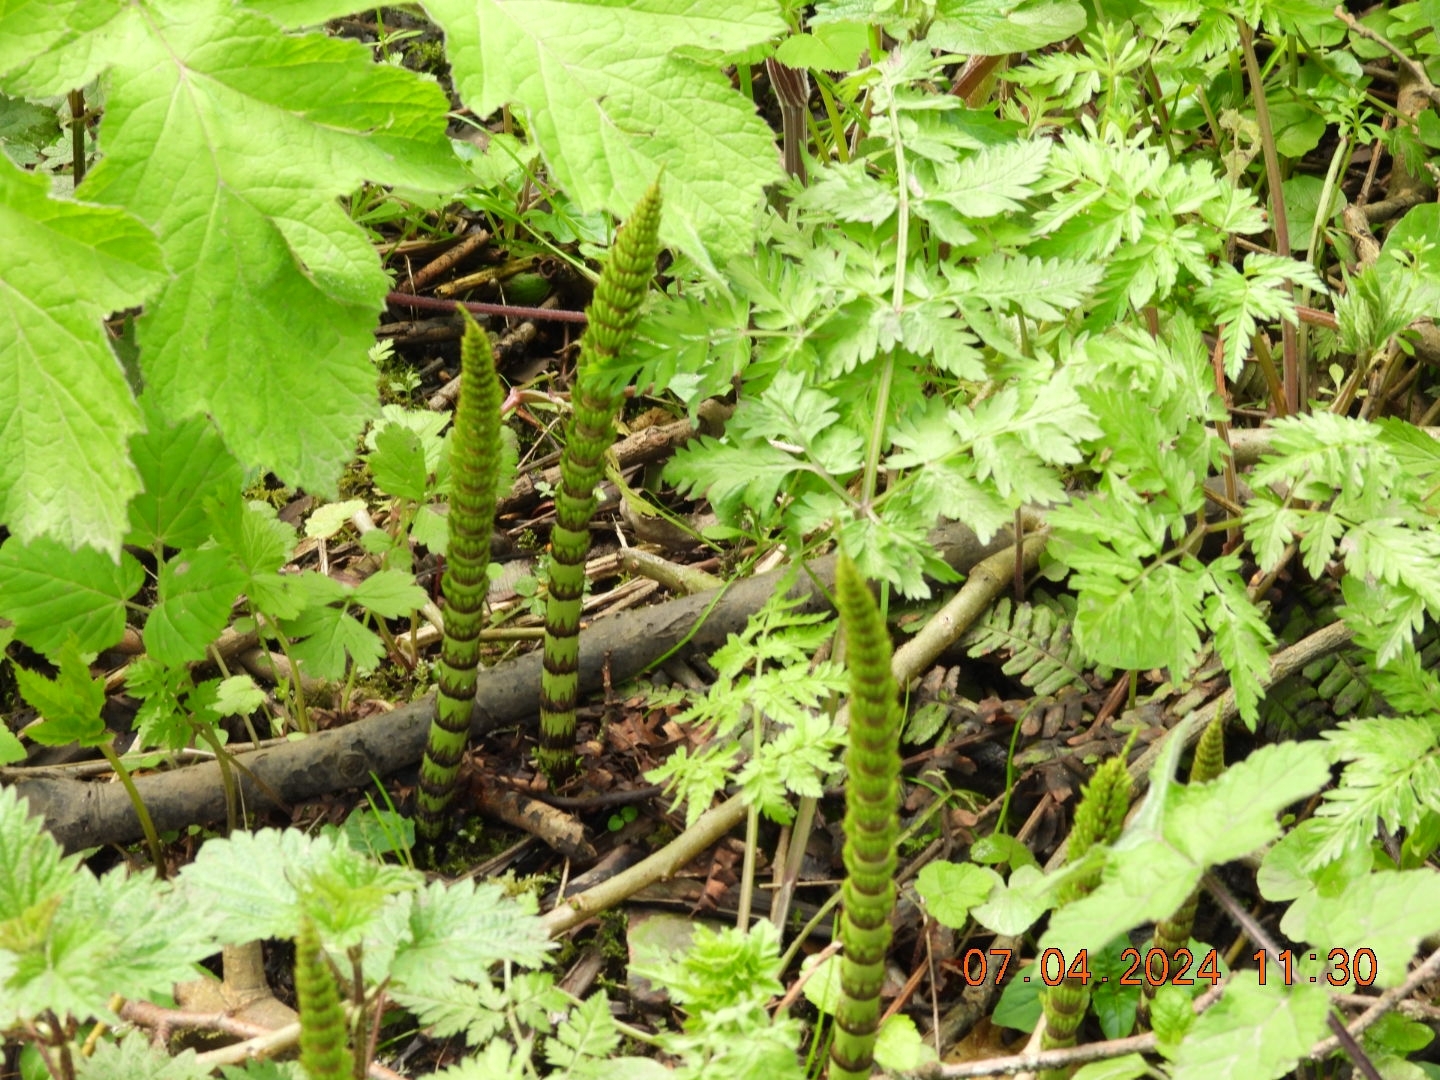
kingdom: Plantae
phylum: Tracheophyta
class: Polypodiopsida
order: Equisetales
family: Equisetaceae
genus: Equisetum
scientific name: Equisetum telmateia
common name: Great horsetail
